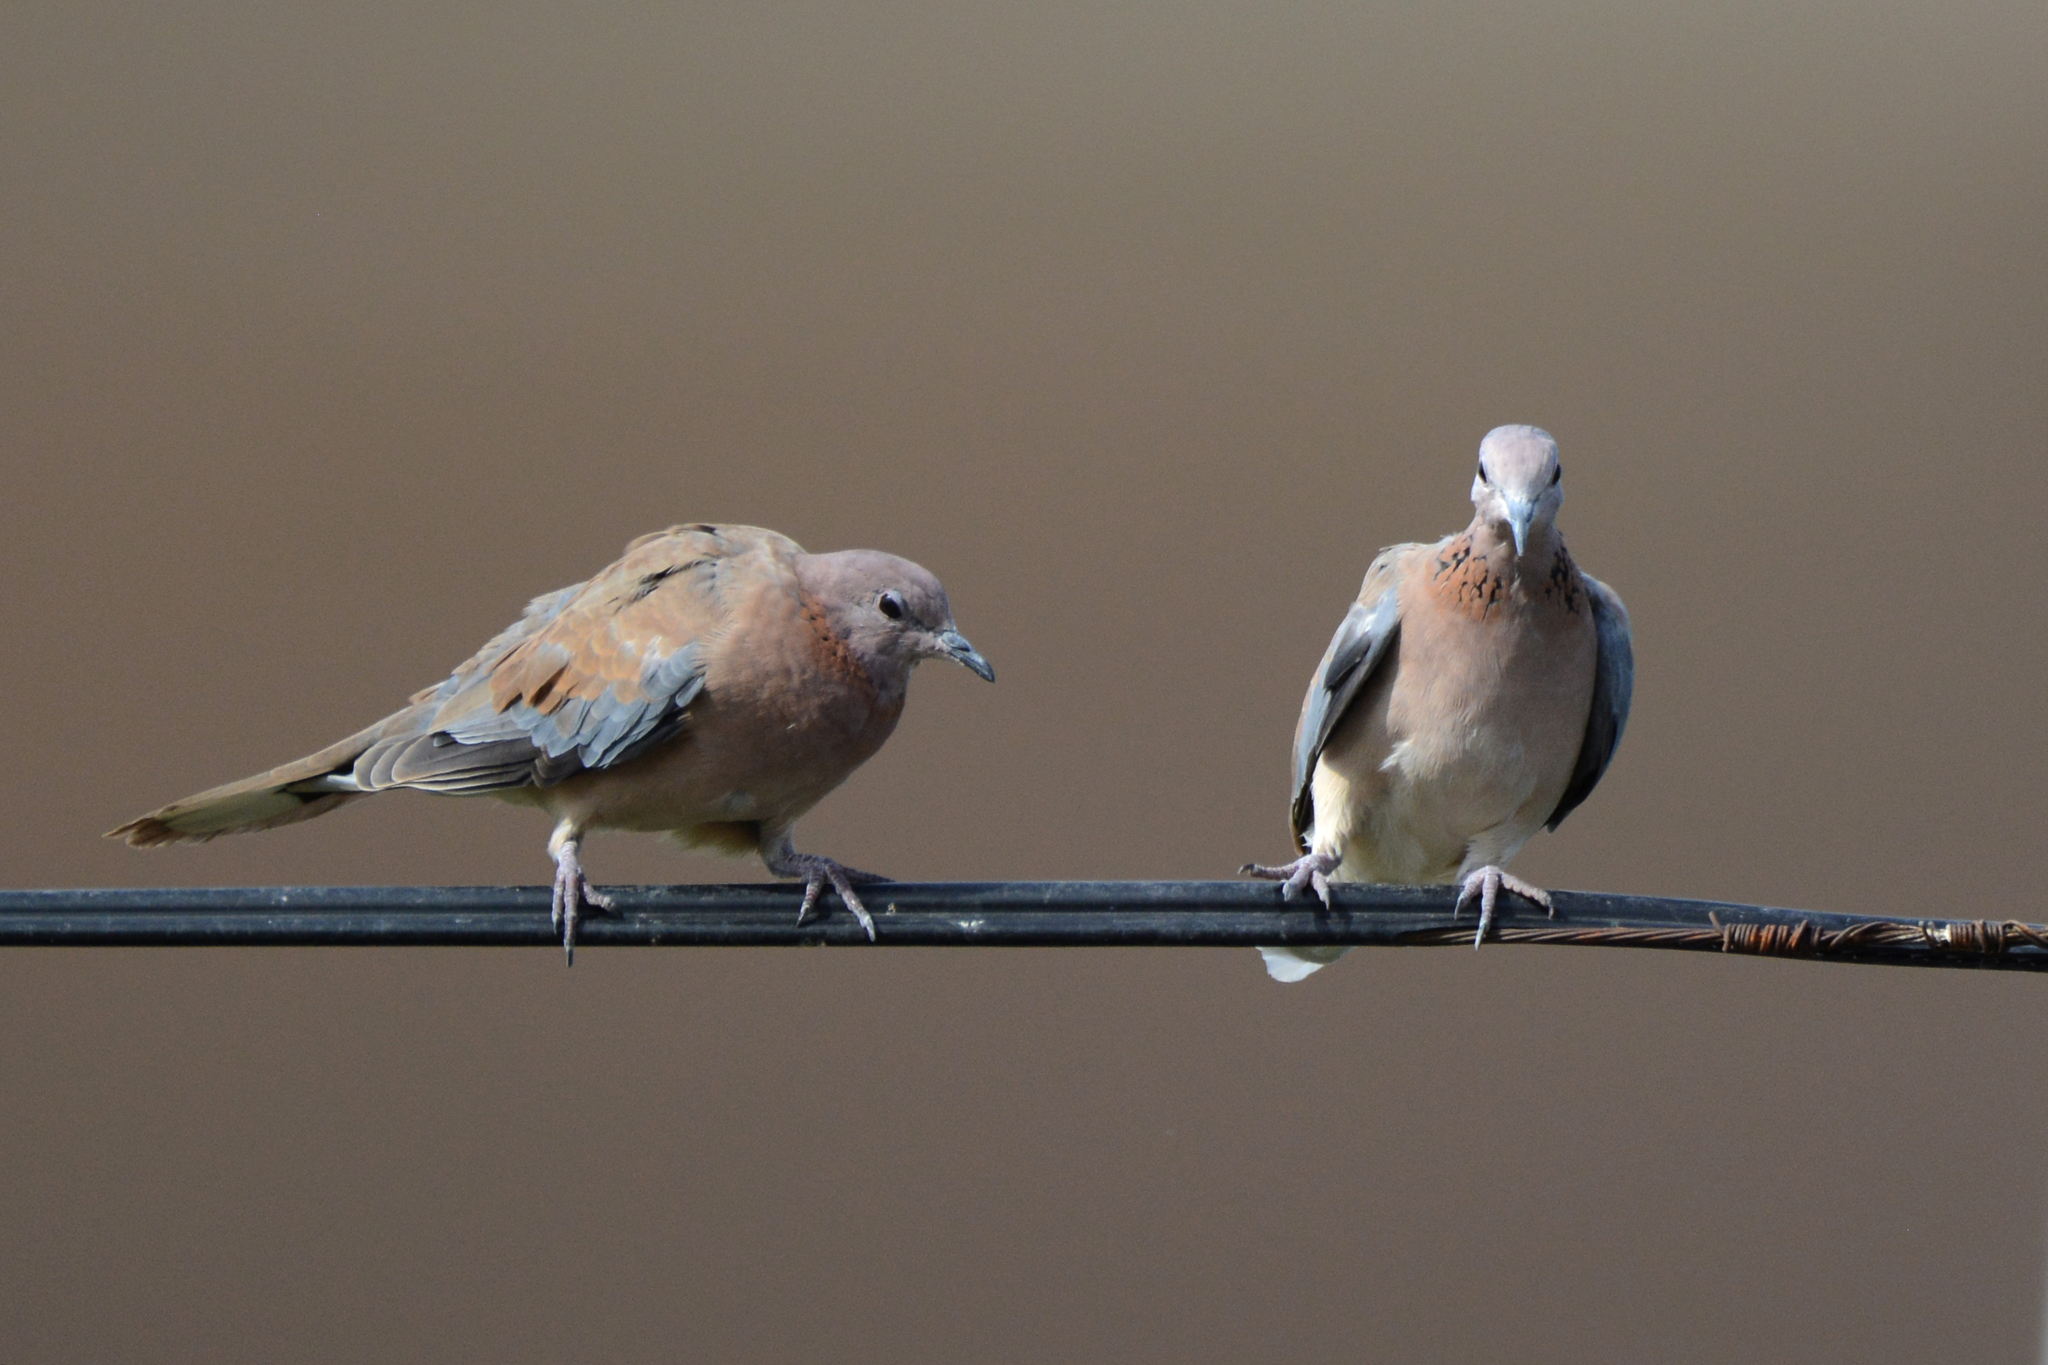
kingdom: Animalia
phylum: Chordata
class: Aves
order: Columbiformes
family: Columbidae
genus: Spilopelia
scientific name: Spilopelia senegalensis
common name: Laughing dove
